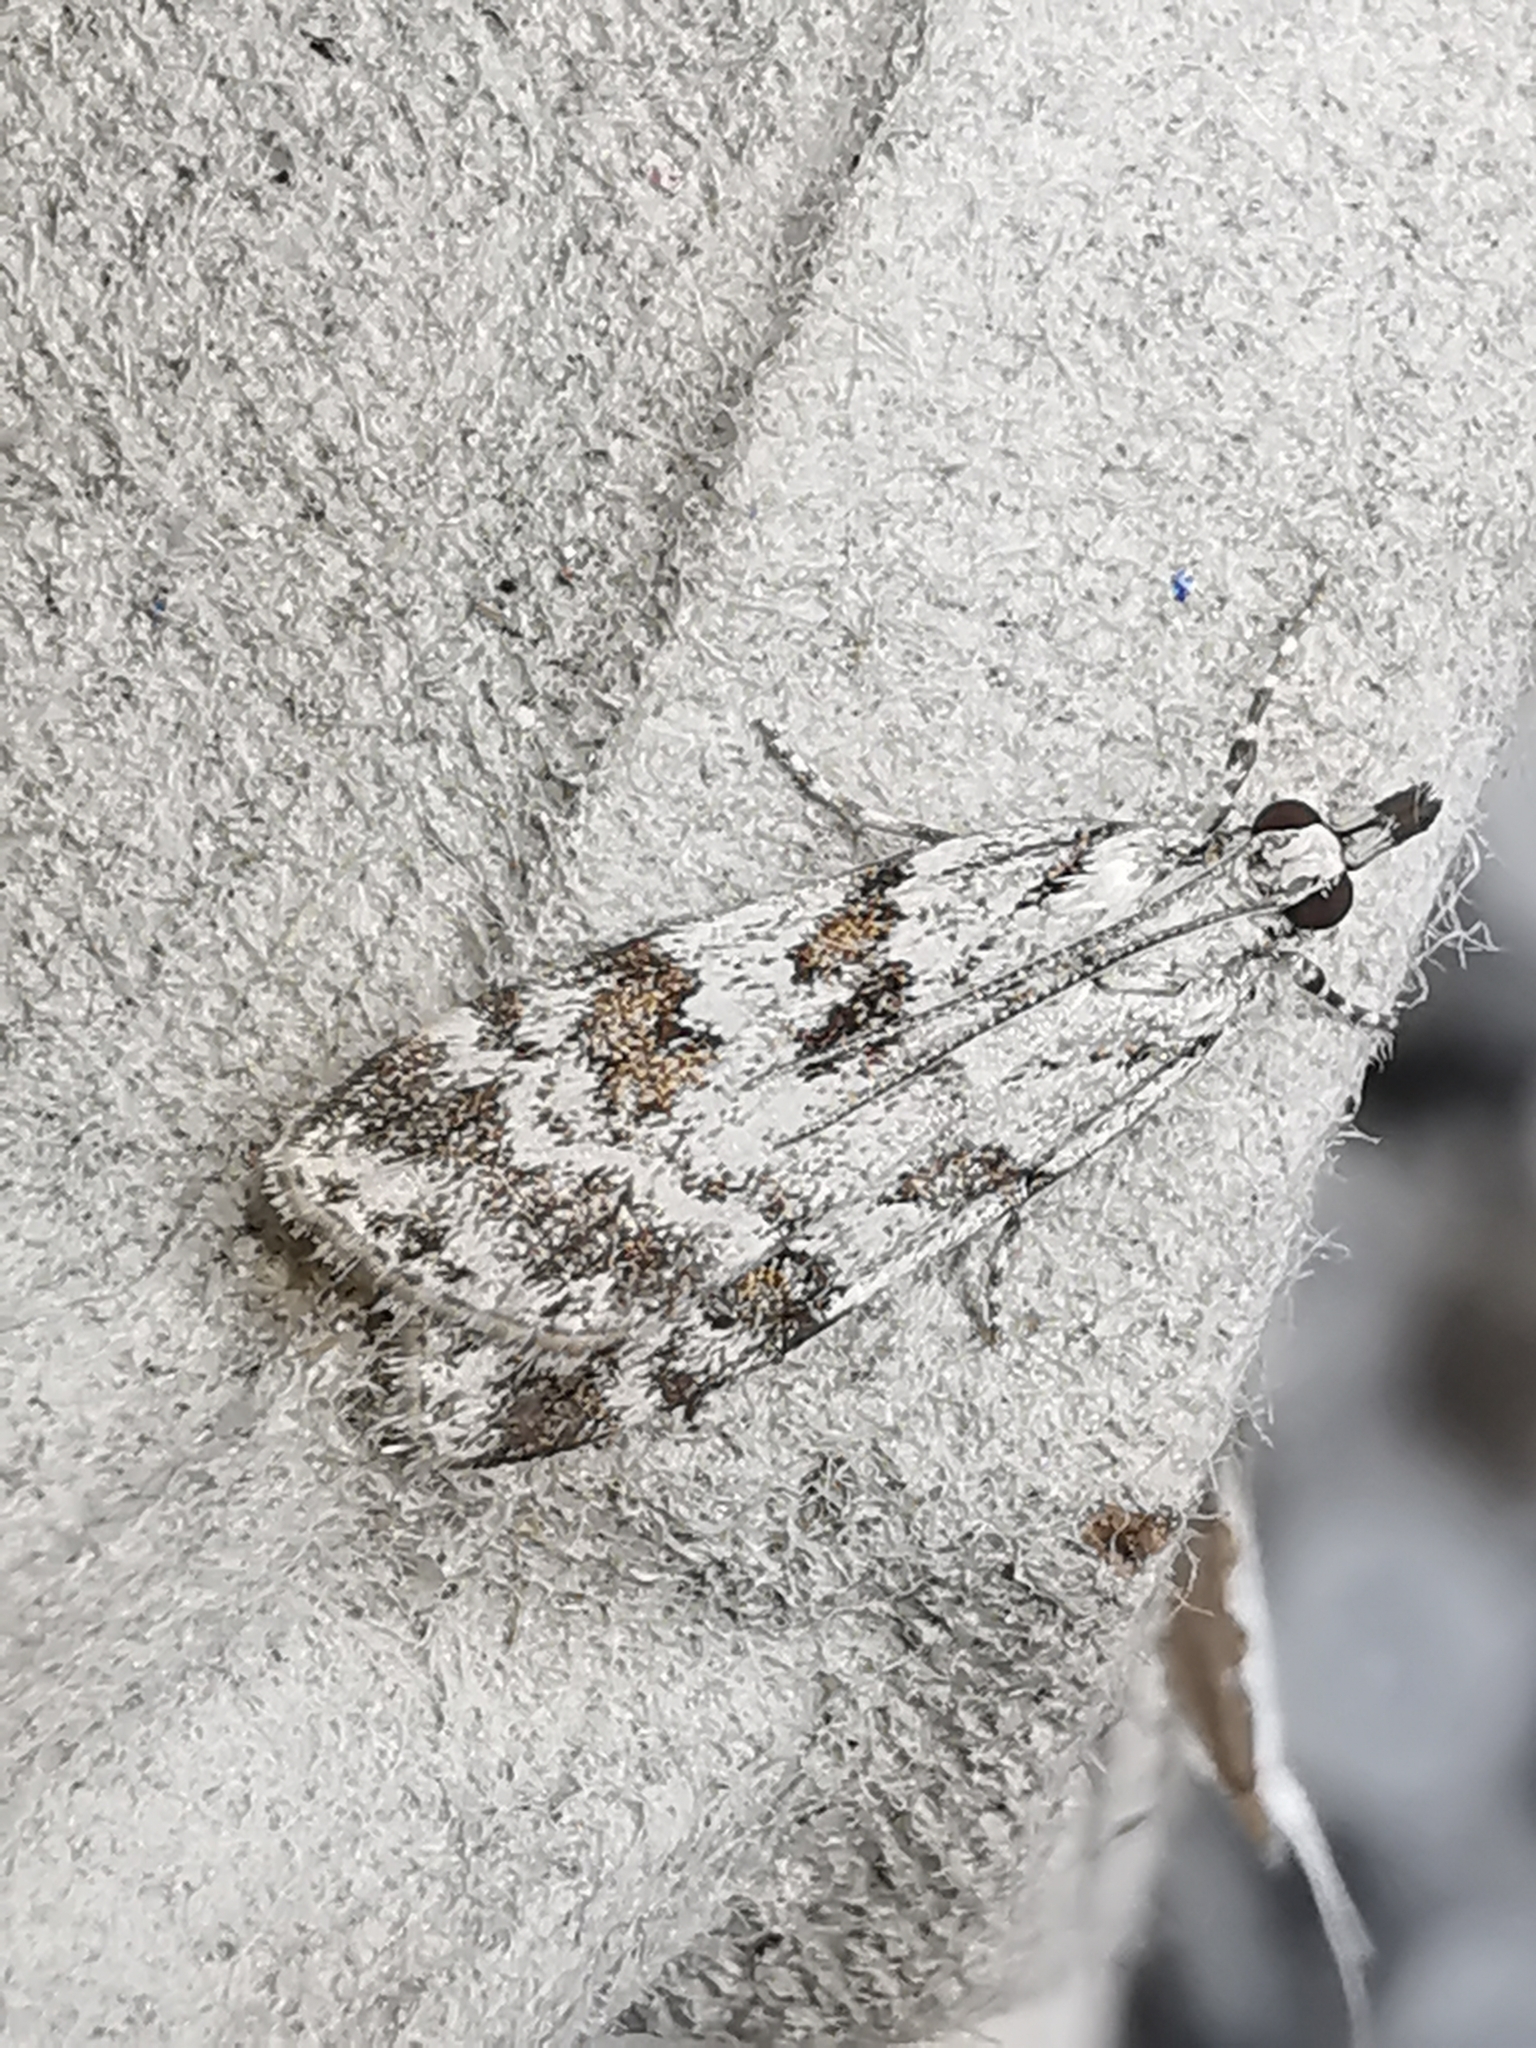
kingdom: Animalia
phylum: Arthropoda
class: Insecta
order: Lepidoptera
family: Crambidae
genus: Scoparia
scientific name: Scoparia pyralella
